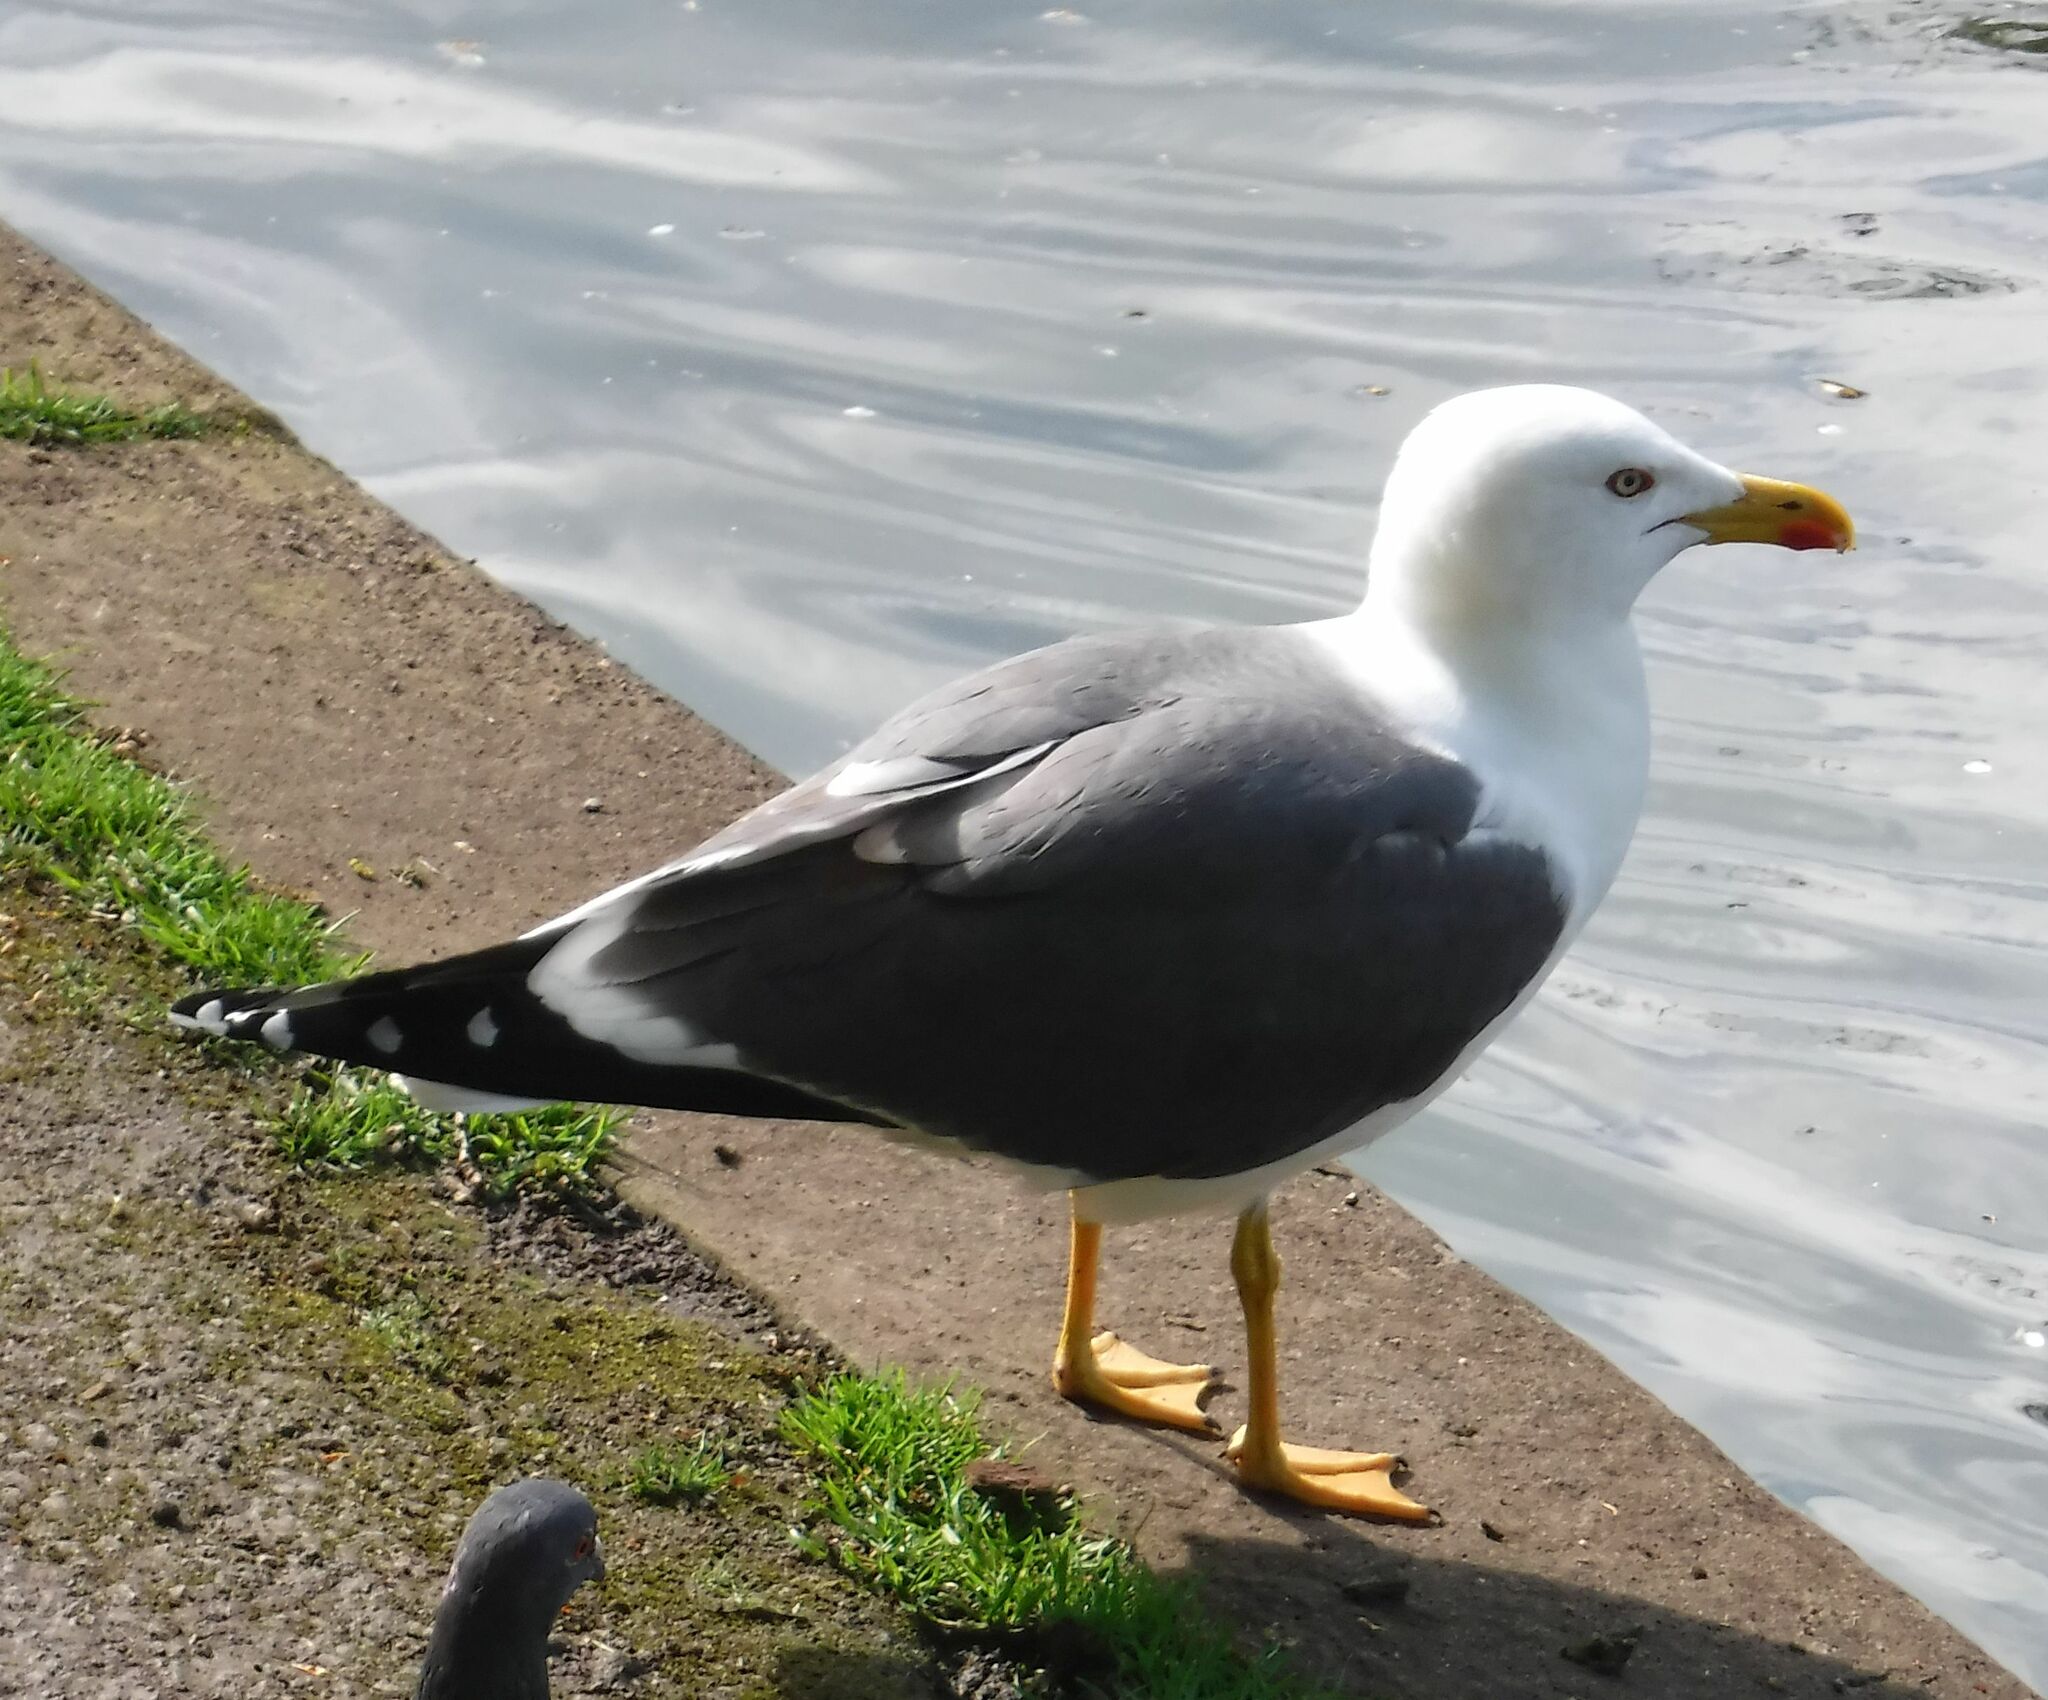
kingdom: Animalia
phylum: Chordata
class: Aves
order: Charadriiformes
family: Laridae
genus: Larus
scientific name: Larus fuscus
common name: Lesser black-backed gull
